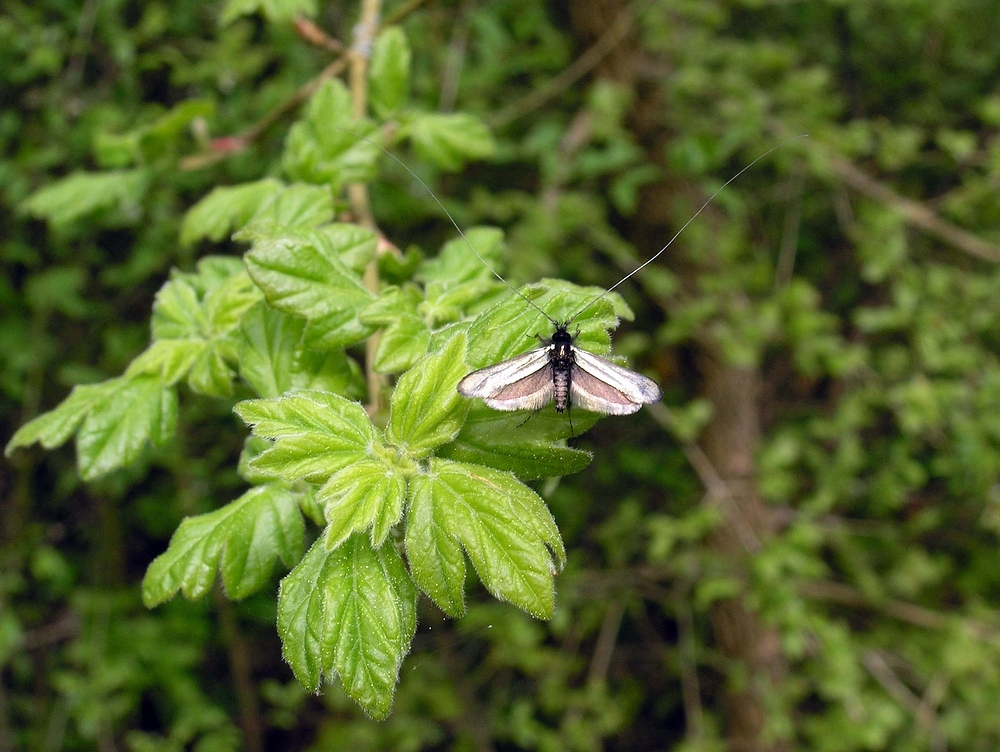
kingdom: Animalia
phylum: Arthropoda
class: Insecta
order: Lepidoptera
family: Adelidae
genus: Adela
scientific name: Adela viridella
